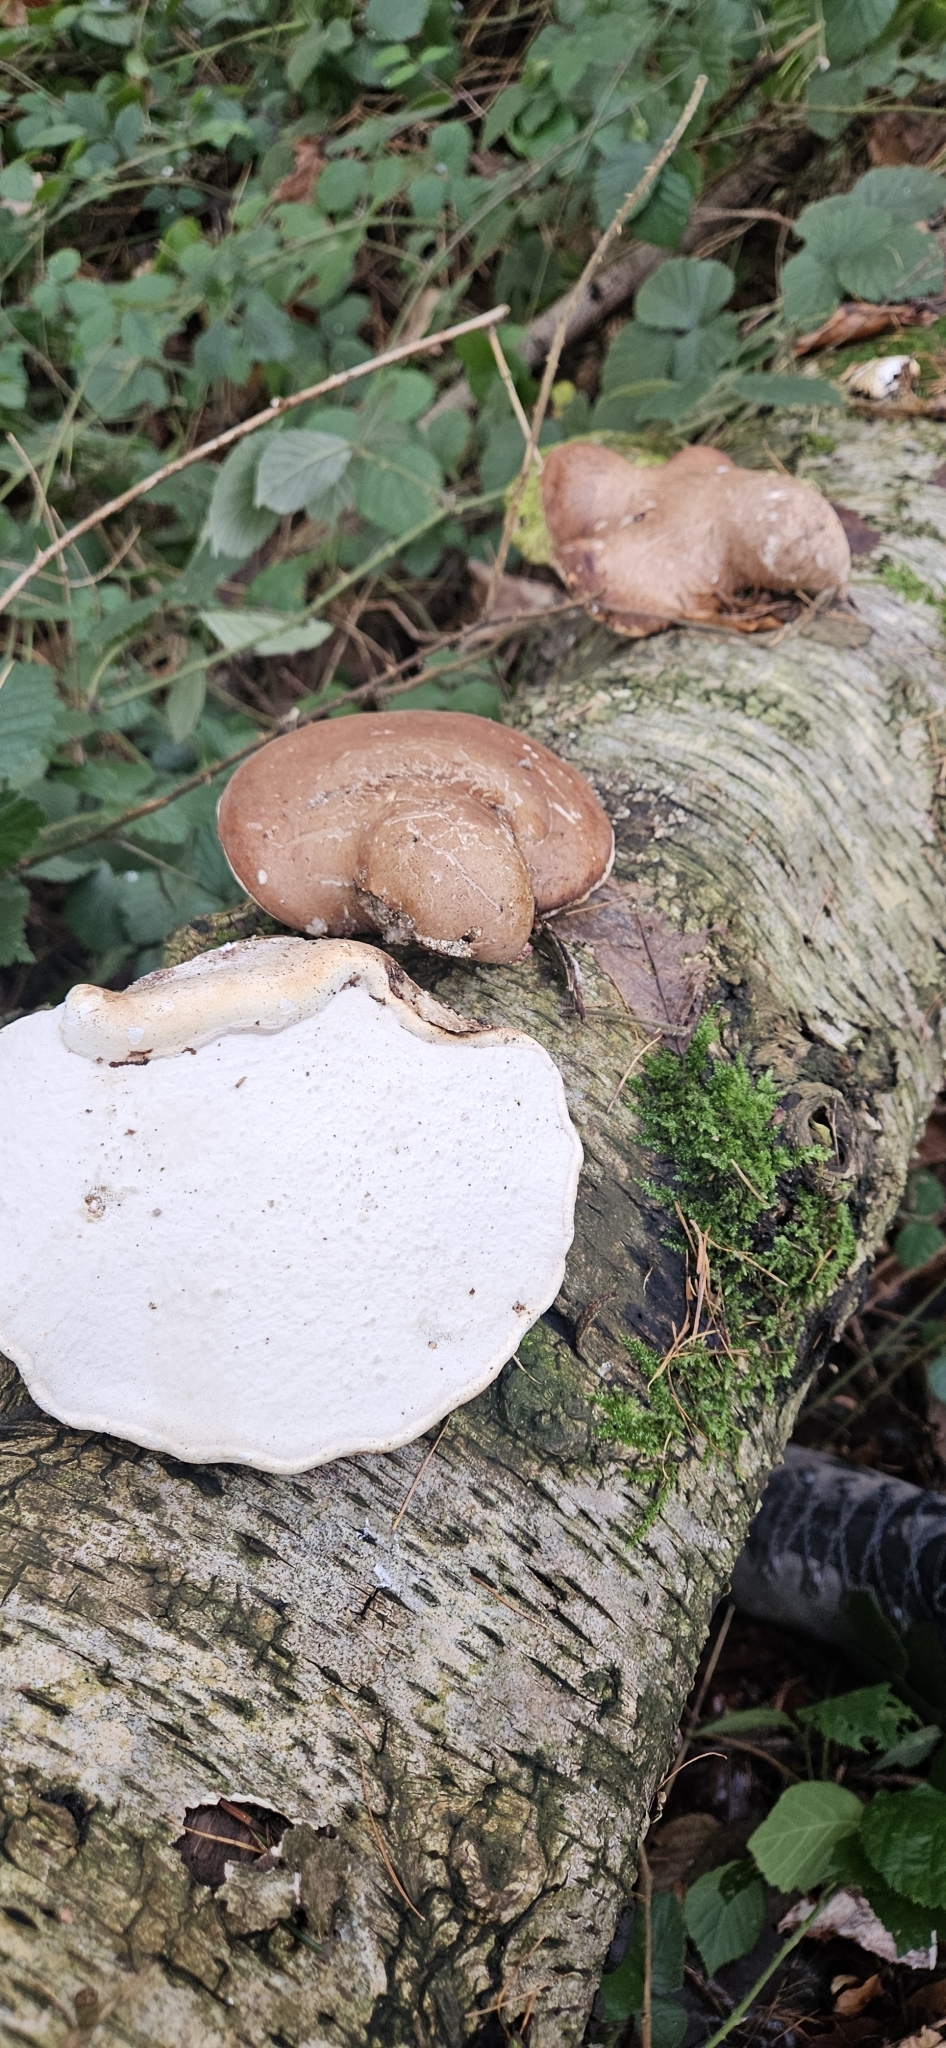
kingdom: Fungi
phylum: Basidiomycota
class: Agaricomycetes
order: Polyporales
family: Fomitopsidaceae
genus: Fomitopsis
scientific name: Fomitopsis betulina
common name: Birch polypore
